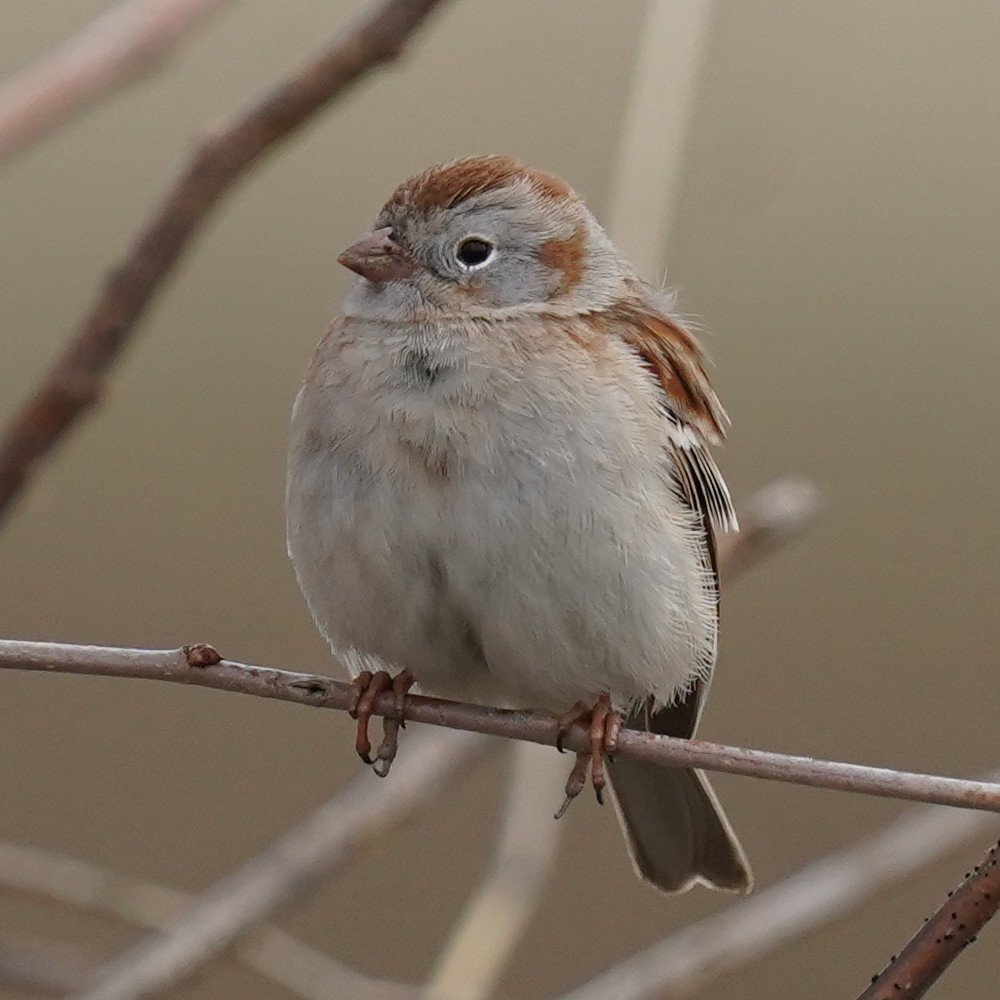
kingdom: Animalia
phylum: Chordata
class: Aves
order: Passeriformes
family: Passerellidae
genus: Spizella
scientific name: Spizella pusilla
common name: Field sparrow
